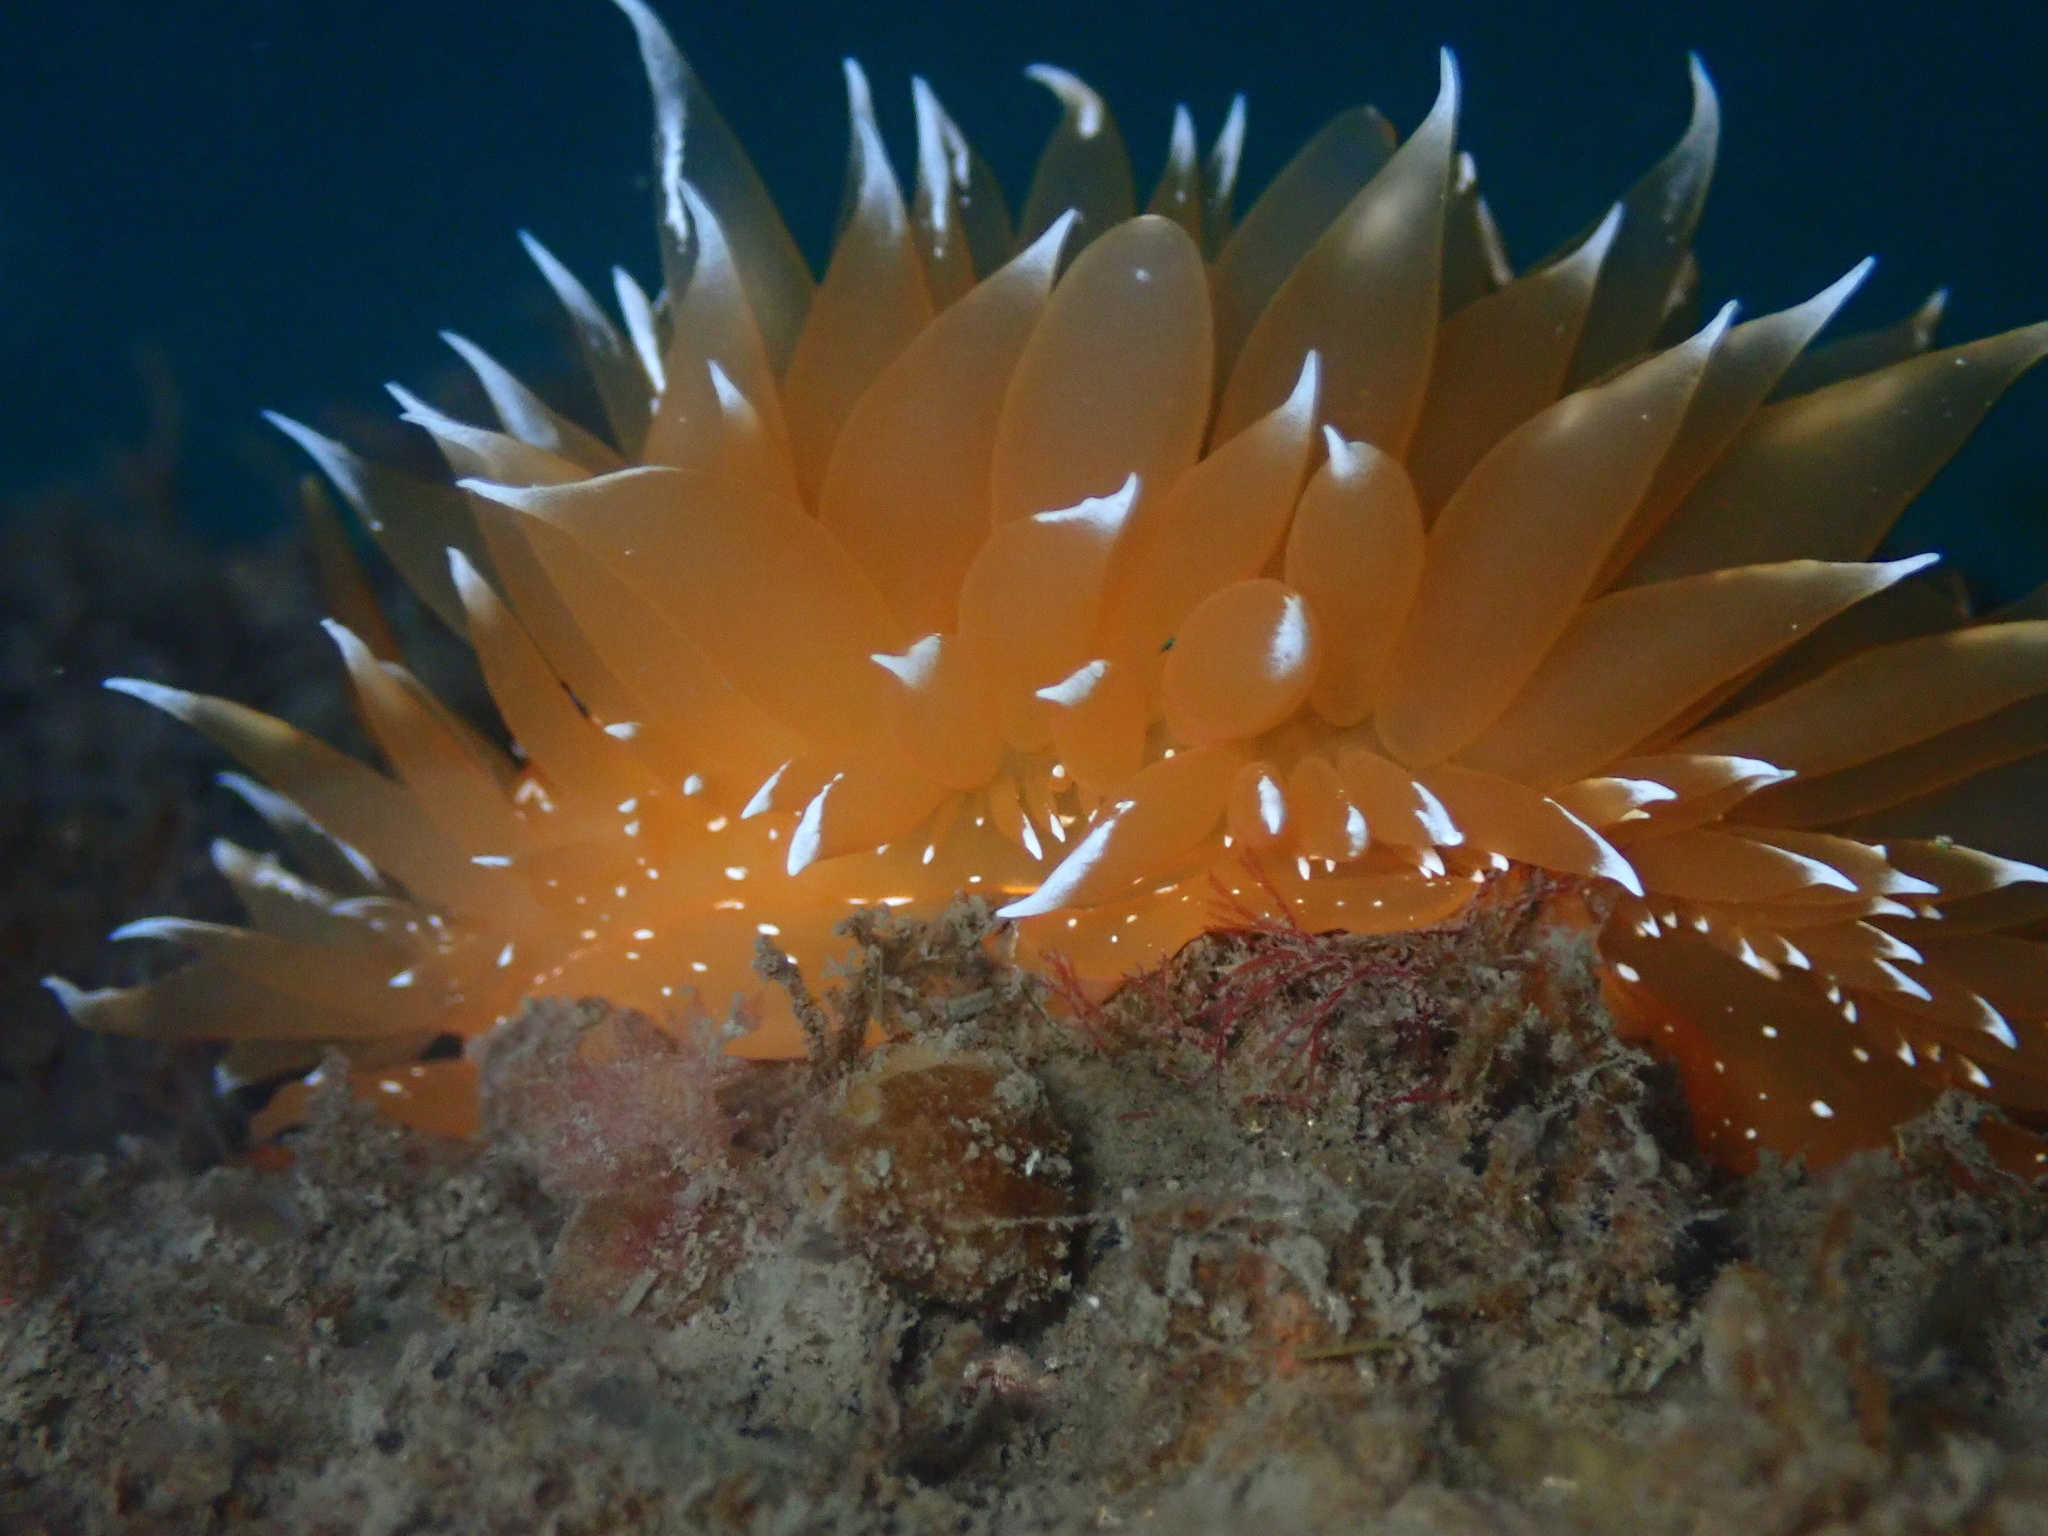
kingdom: Animalia
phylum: Mollusca
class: Gastropoda
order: Nudibranchia
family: Dironidae
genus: Dirona
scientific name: Dirona pellucida
